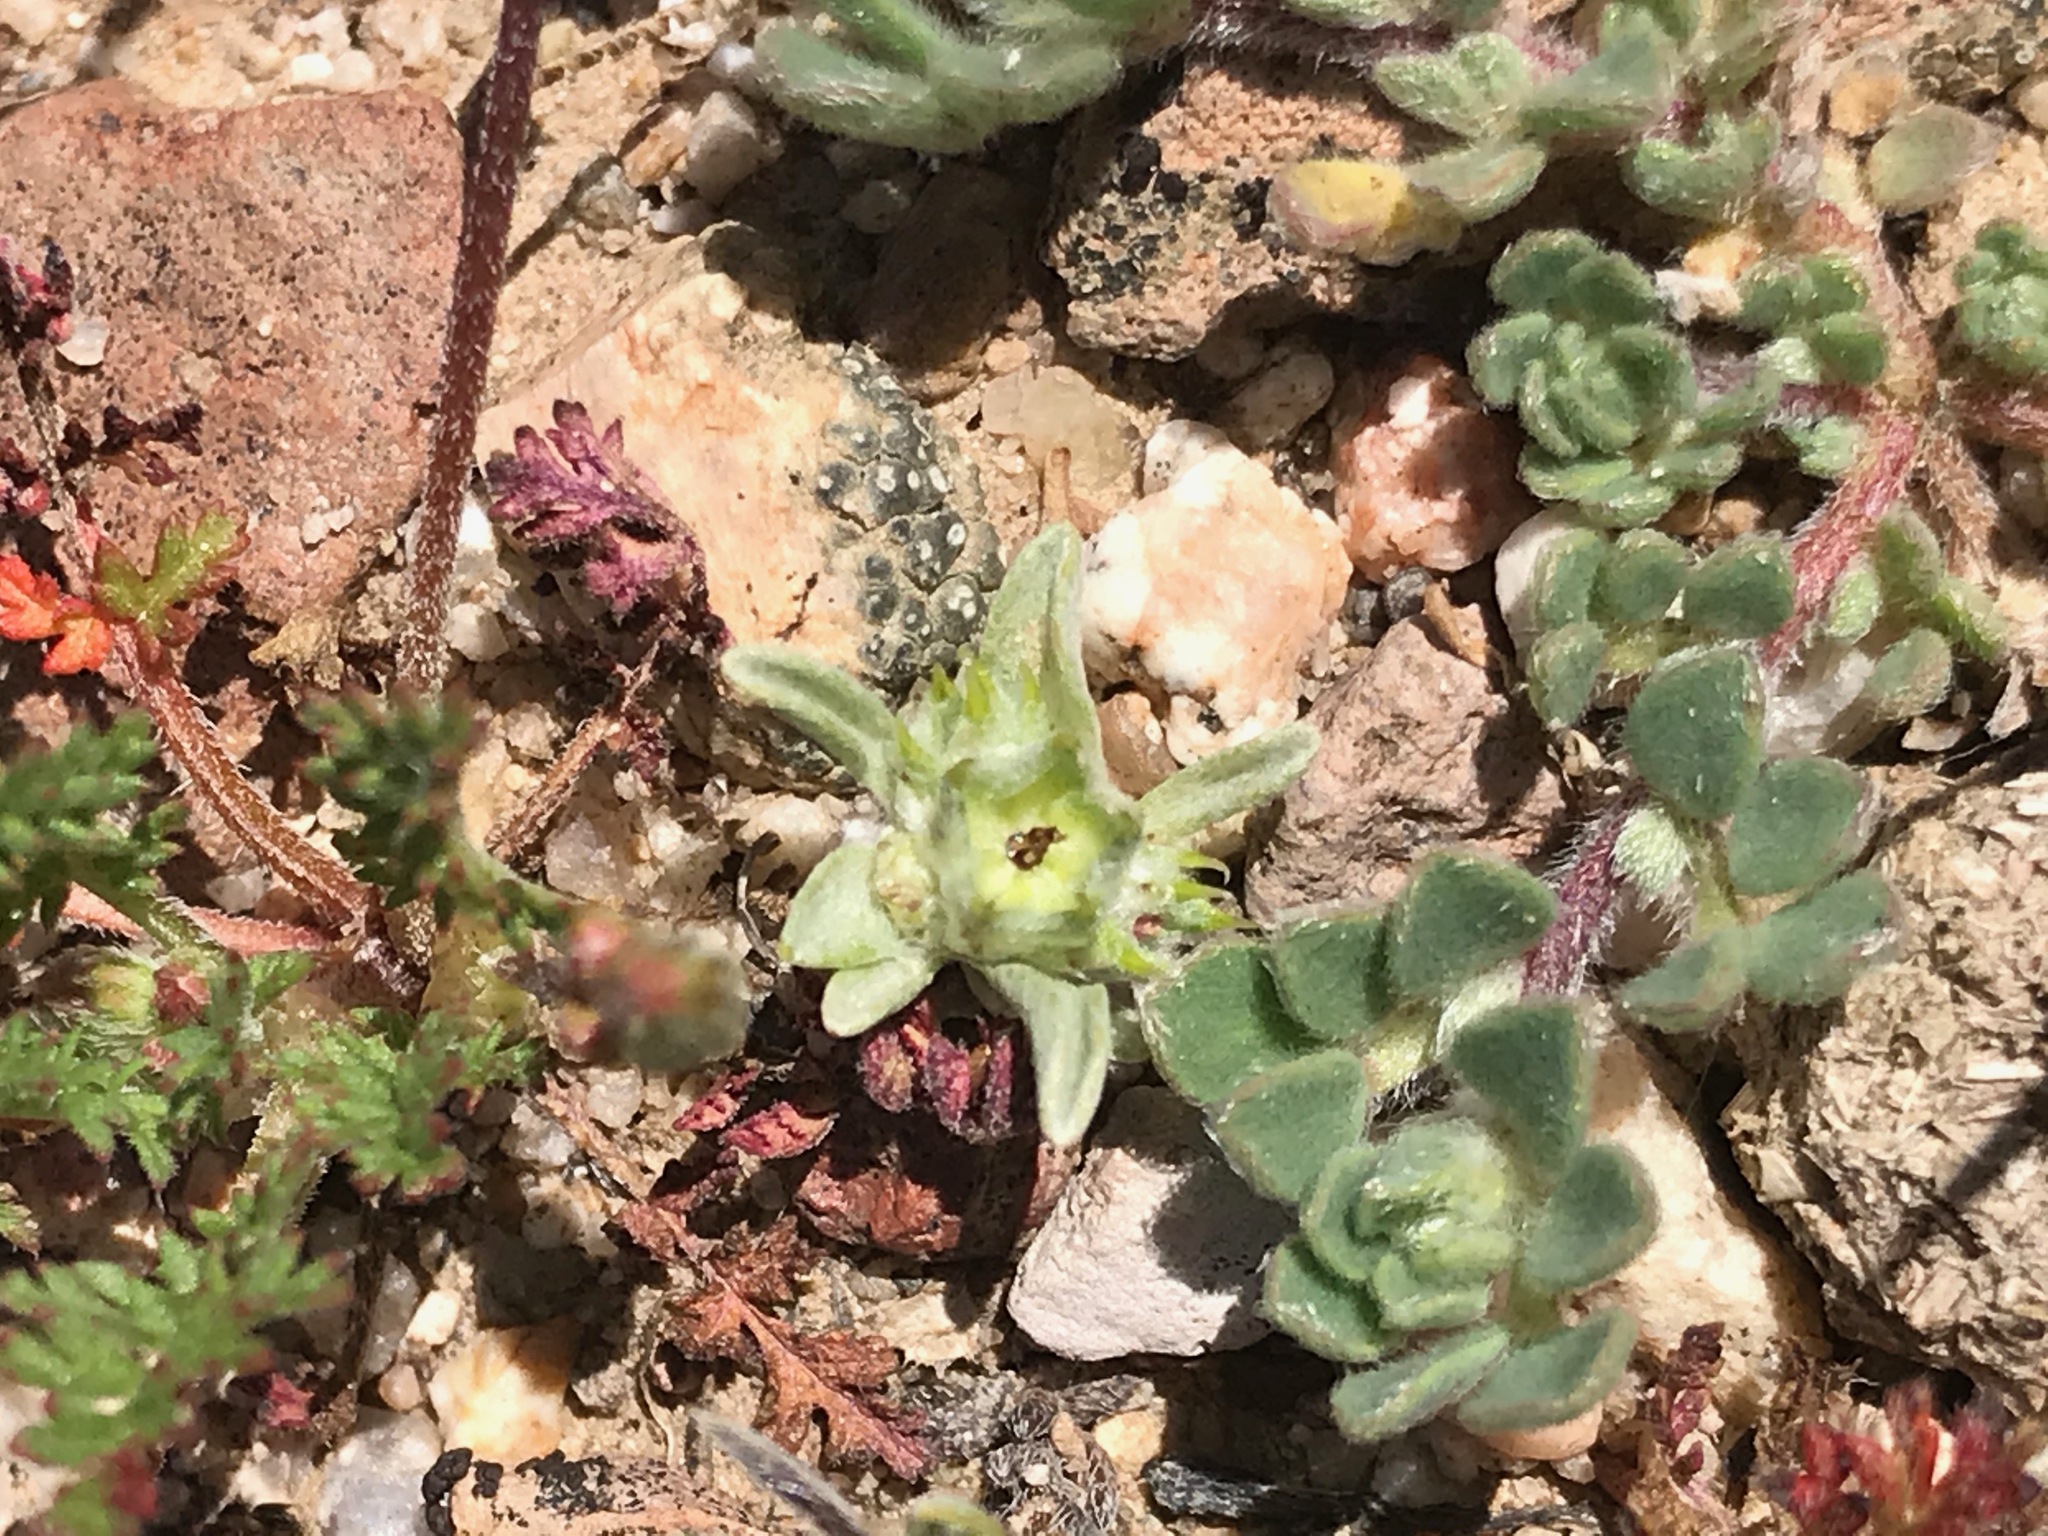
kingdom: Plantae
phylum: Tracheophyta
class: Magnoliopsida
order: Asterales
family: Asteraceae
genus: Ancistrocarphus
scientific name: Ancistrocarphus filagineus
